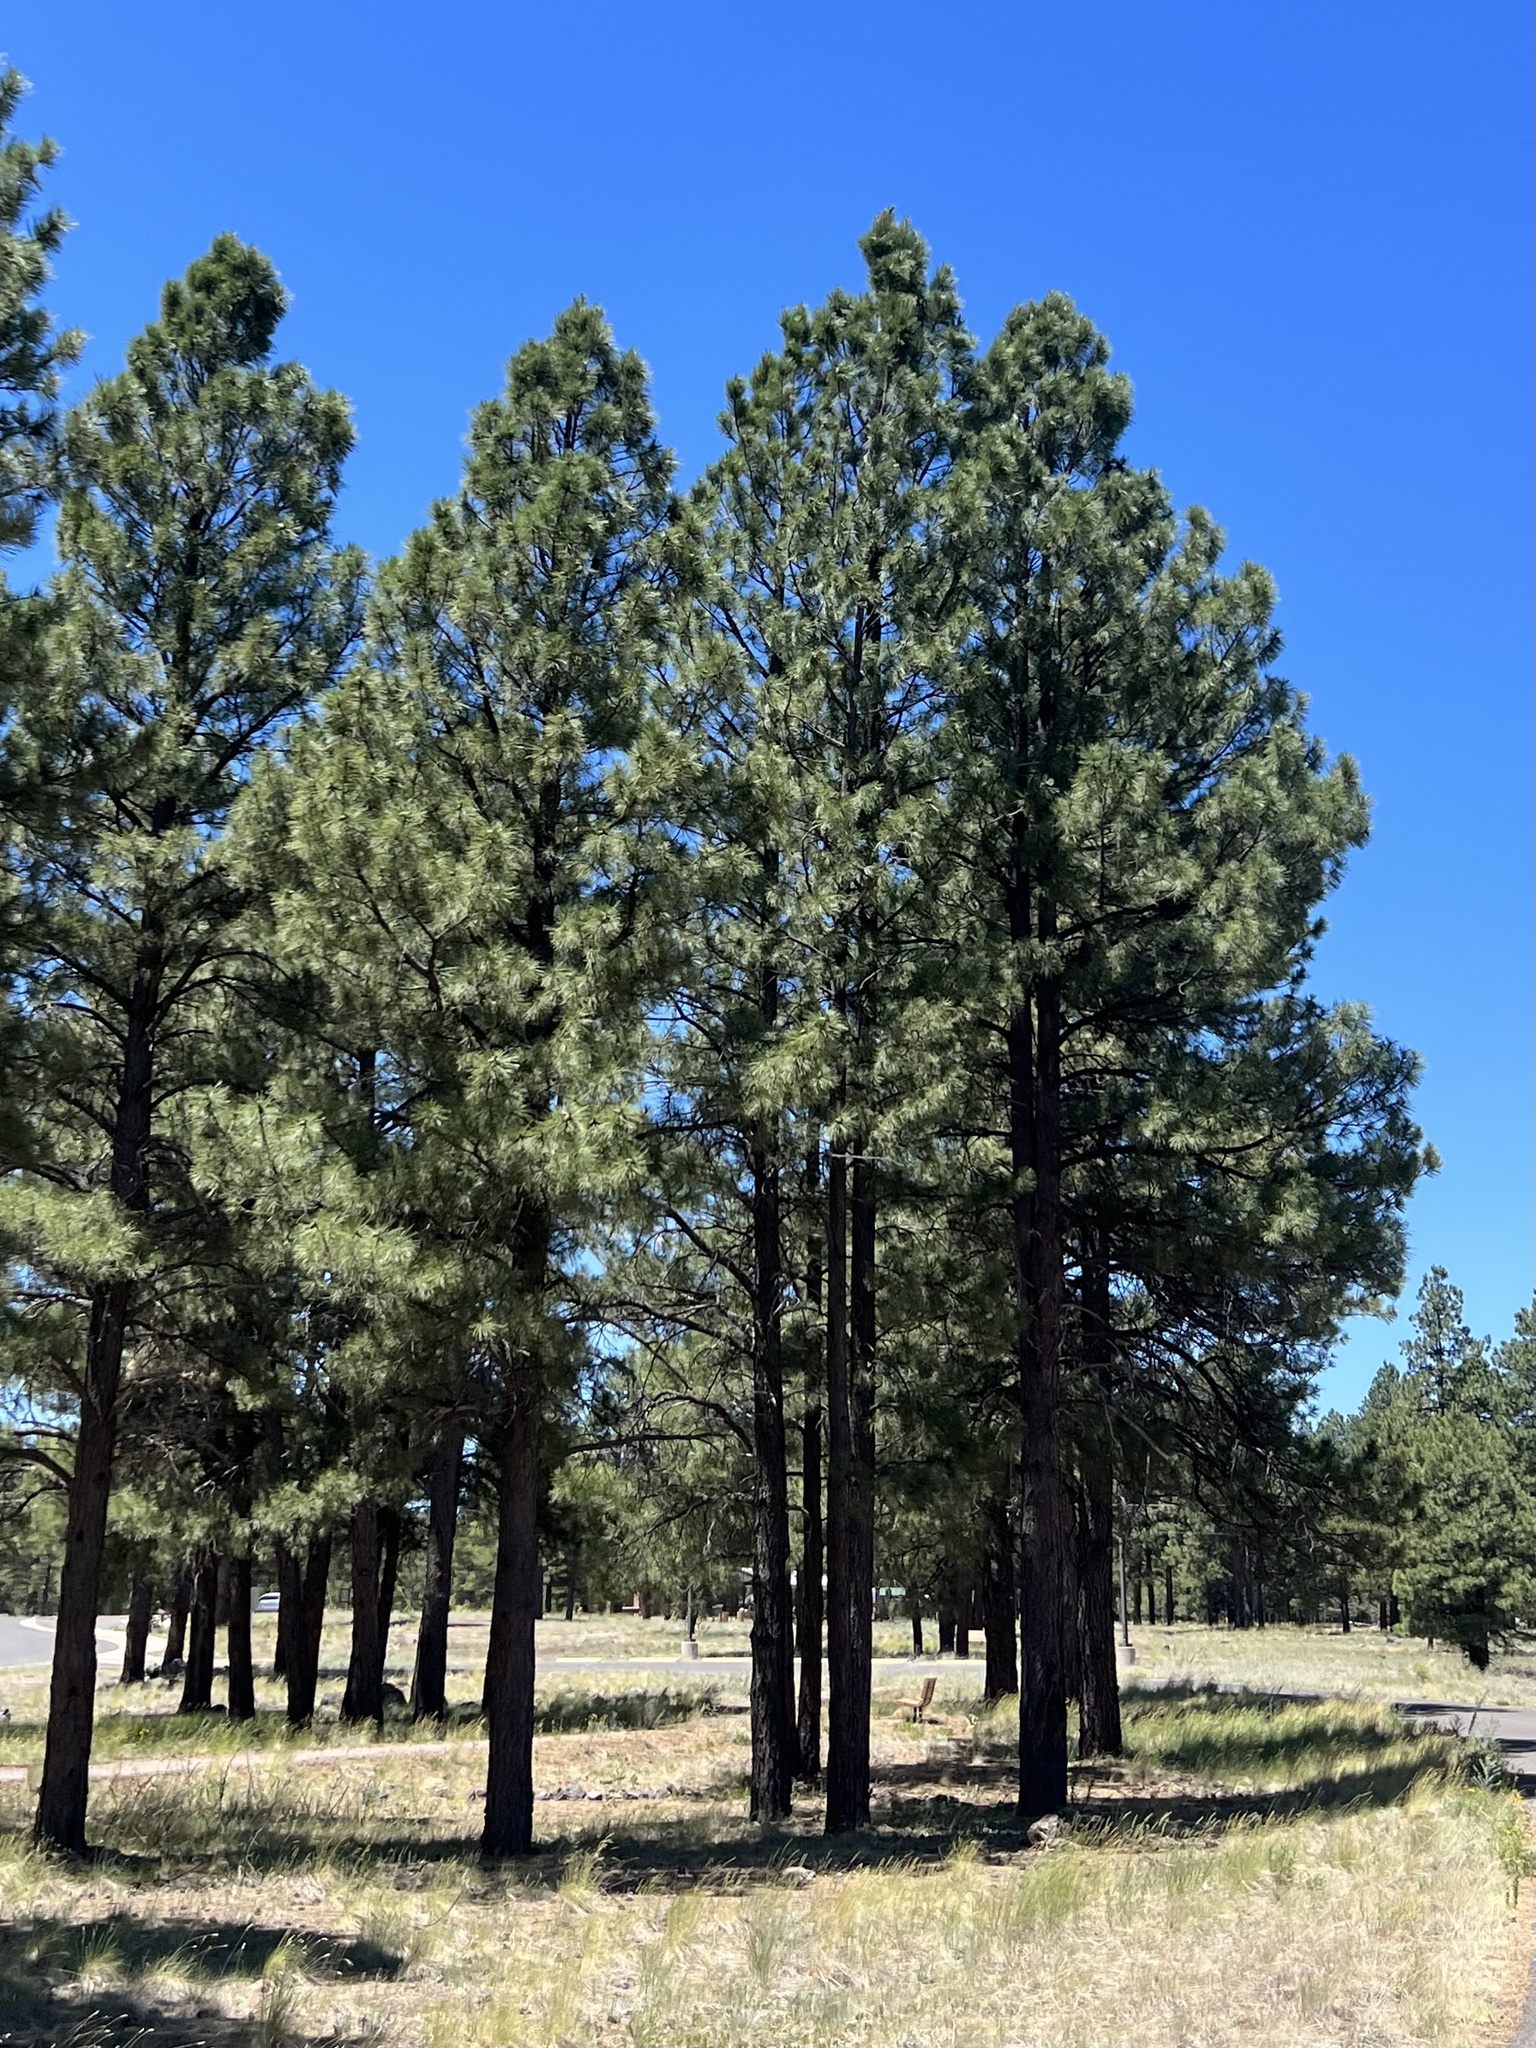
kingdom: Plantae
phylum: Tracheophyta
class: Pinopsida
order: Pinales
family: Pinaceae
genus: Pinus
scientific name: Pinus ponderosa
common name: Western yellow-pine
